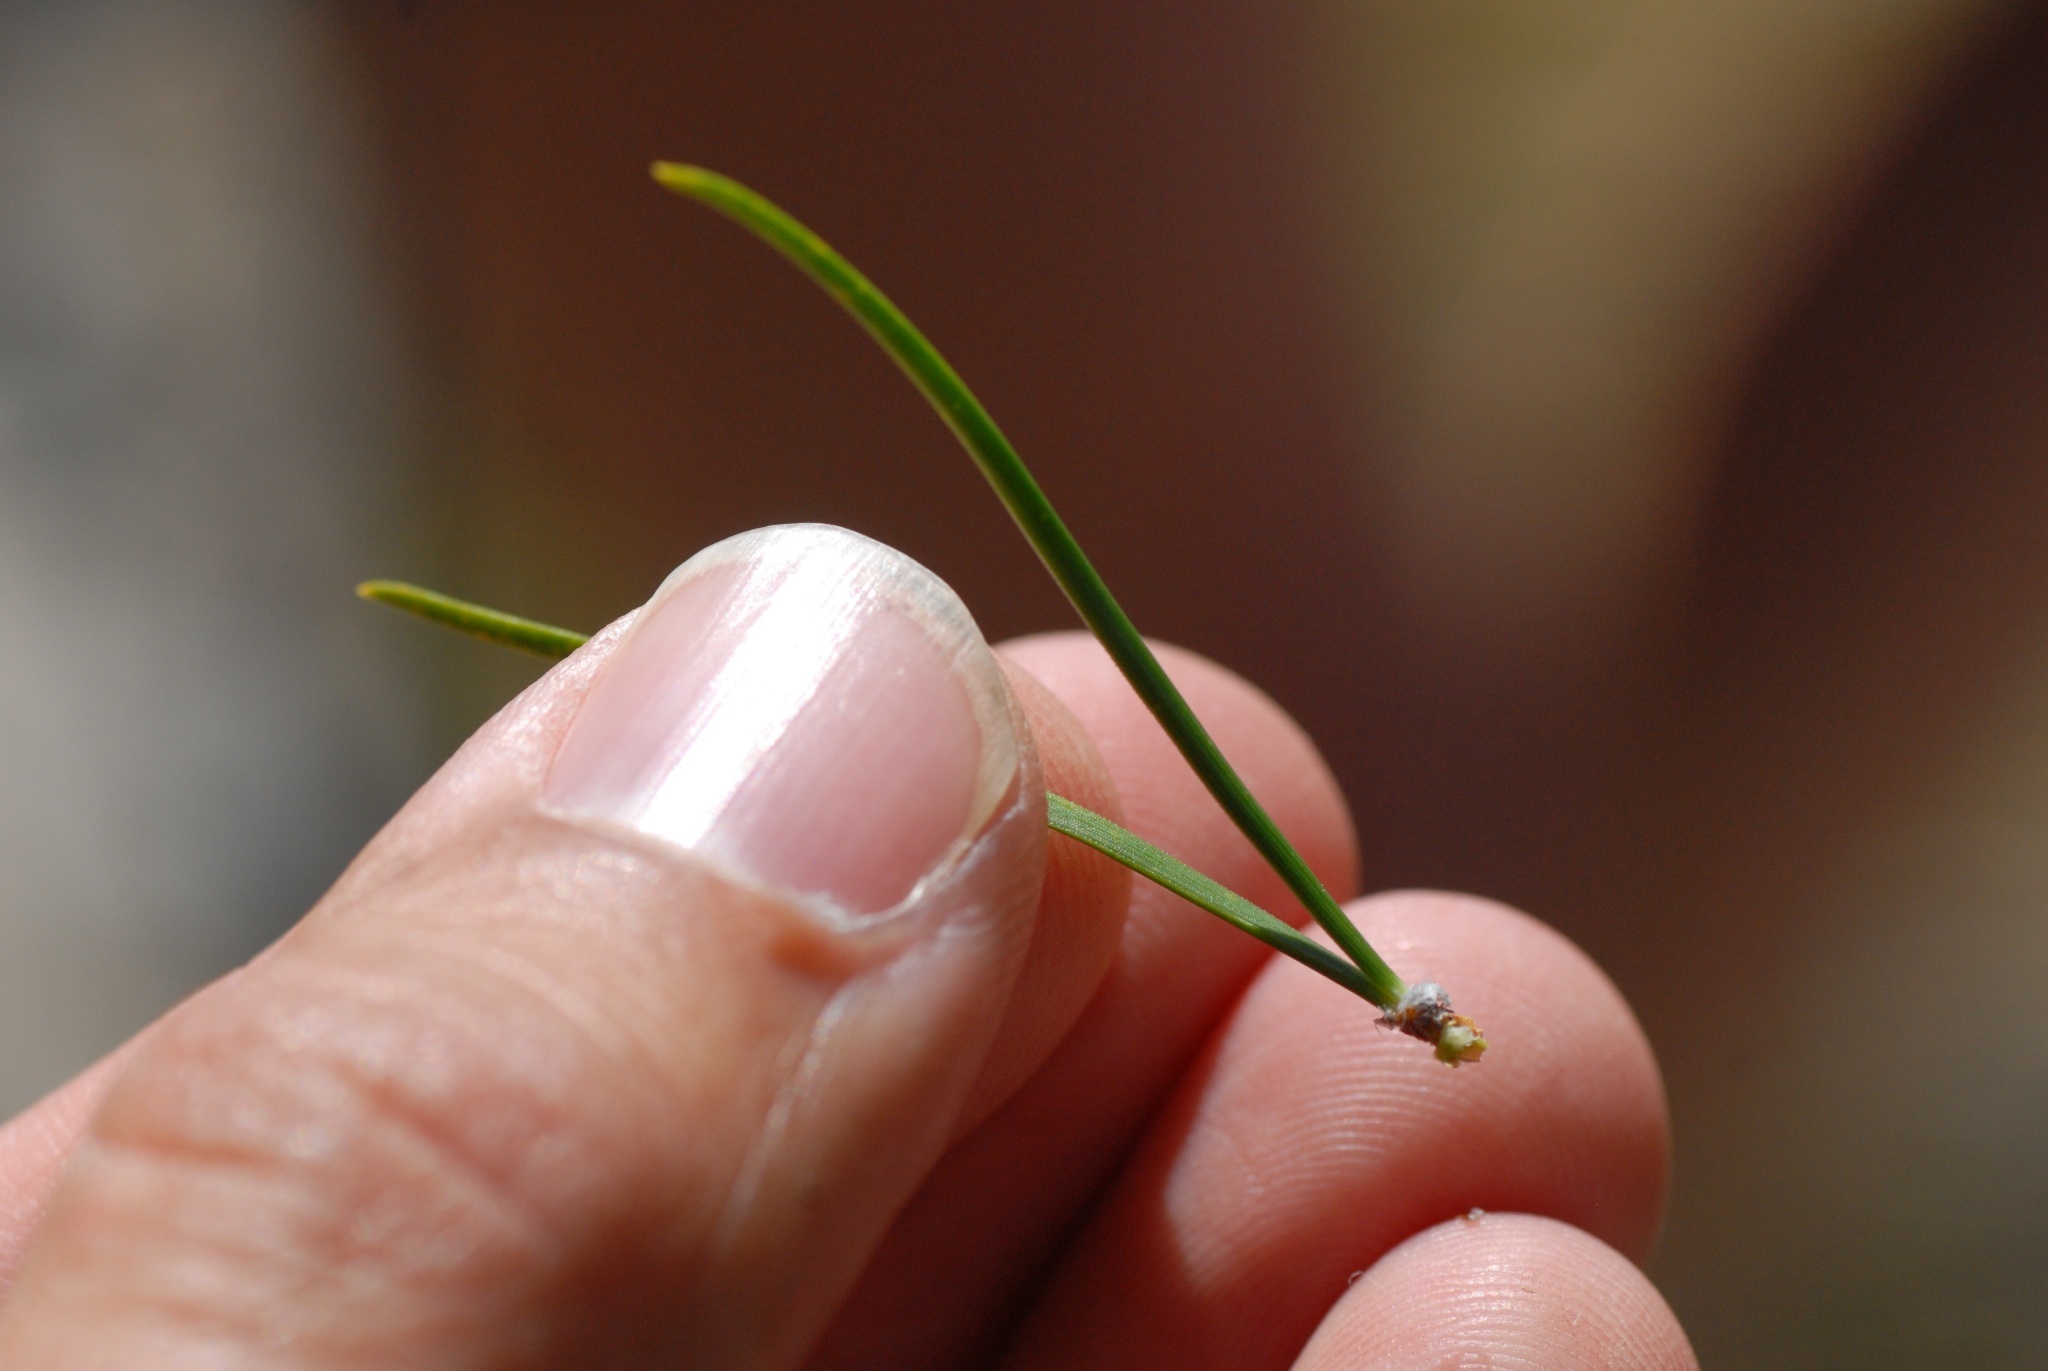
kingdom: Plantae
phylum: Tracheophyta
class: Pinopsida
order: Pinales
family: Pinaceae
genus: Pinus
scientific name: Pinus nigra
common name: Austrian pine
